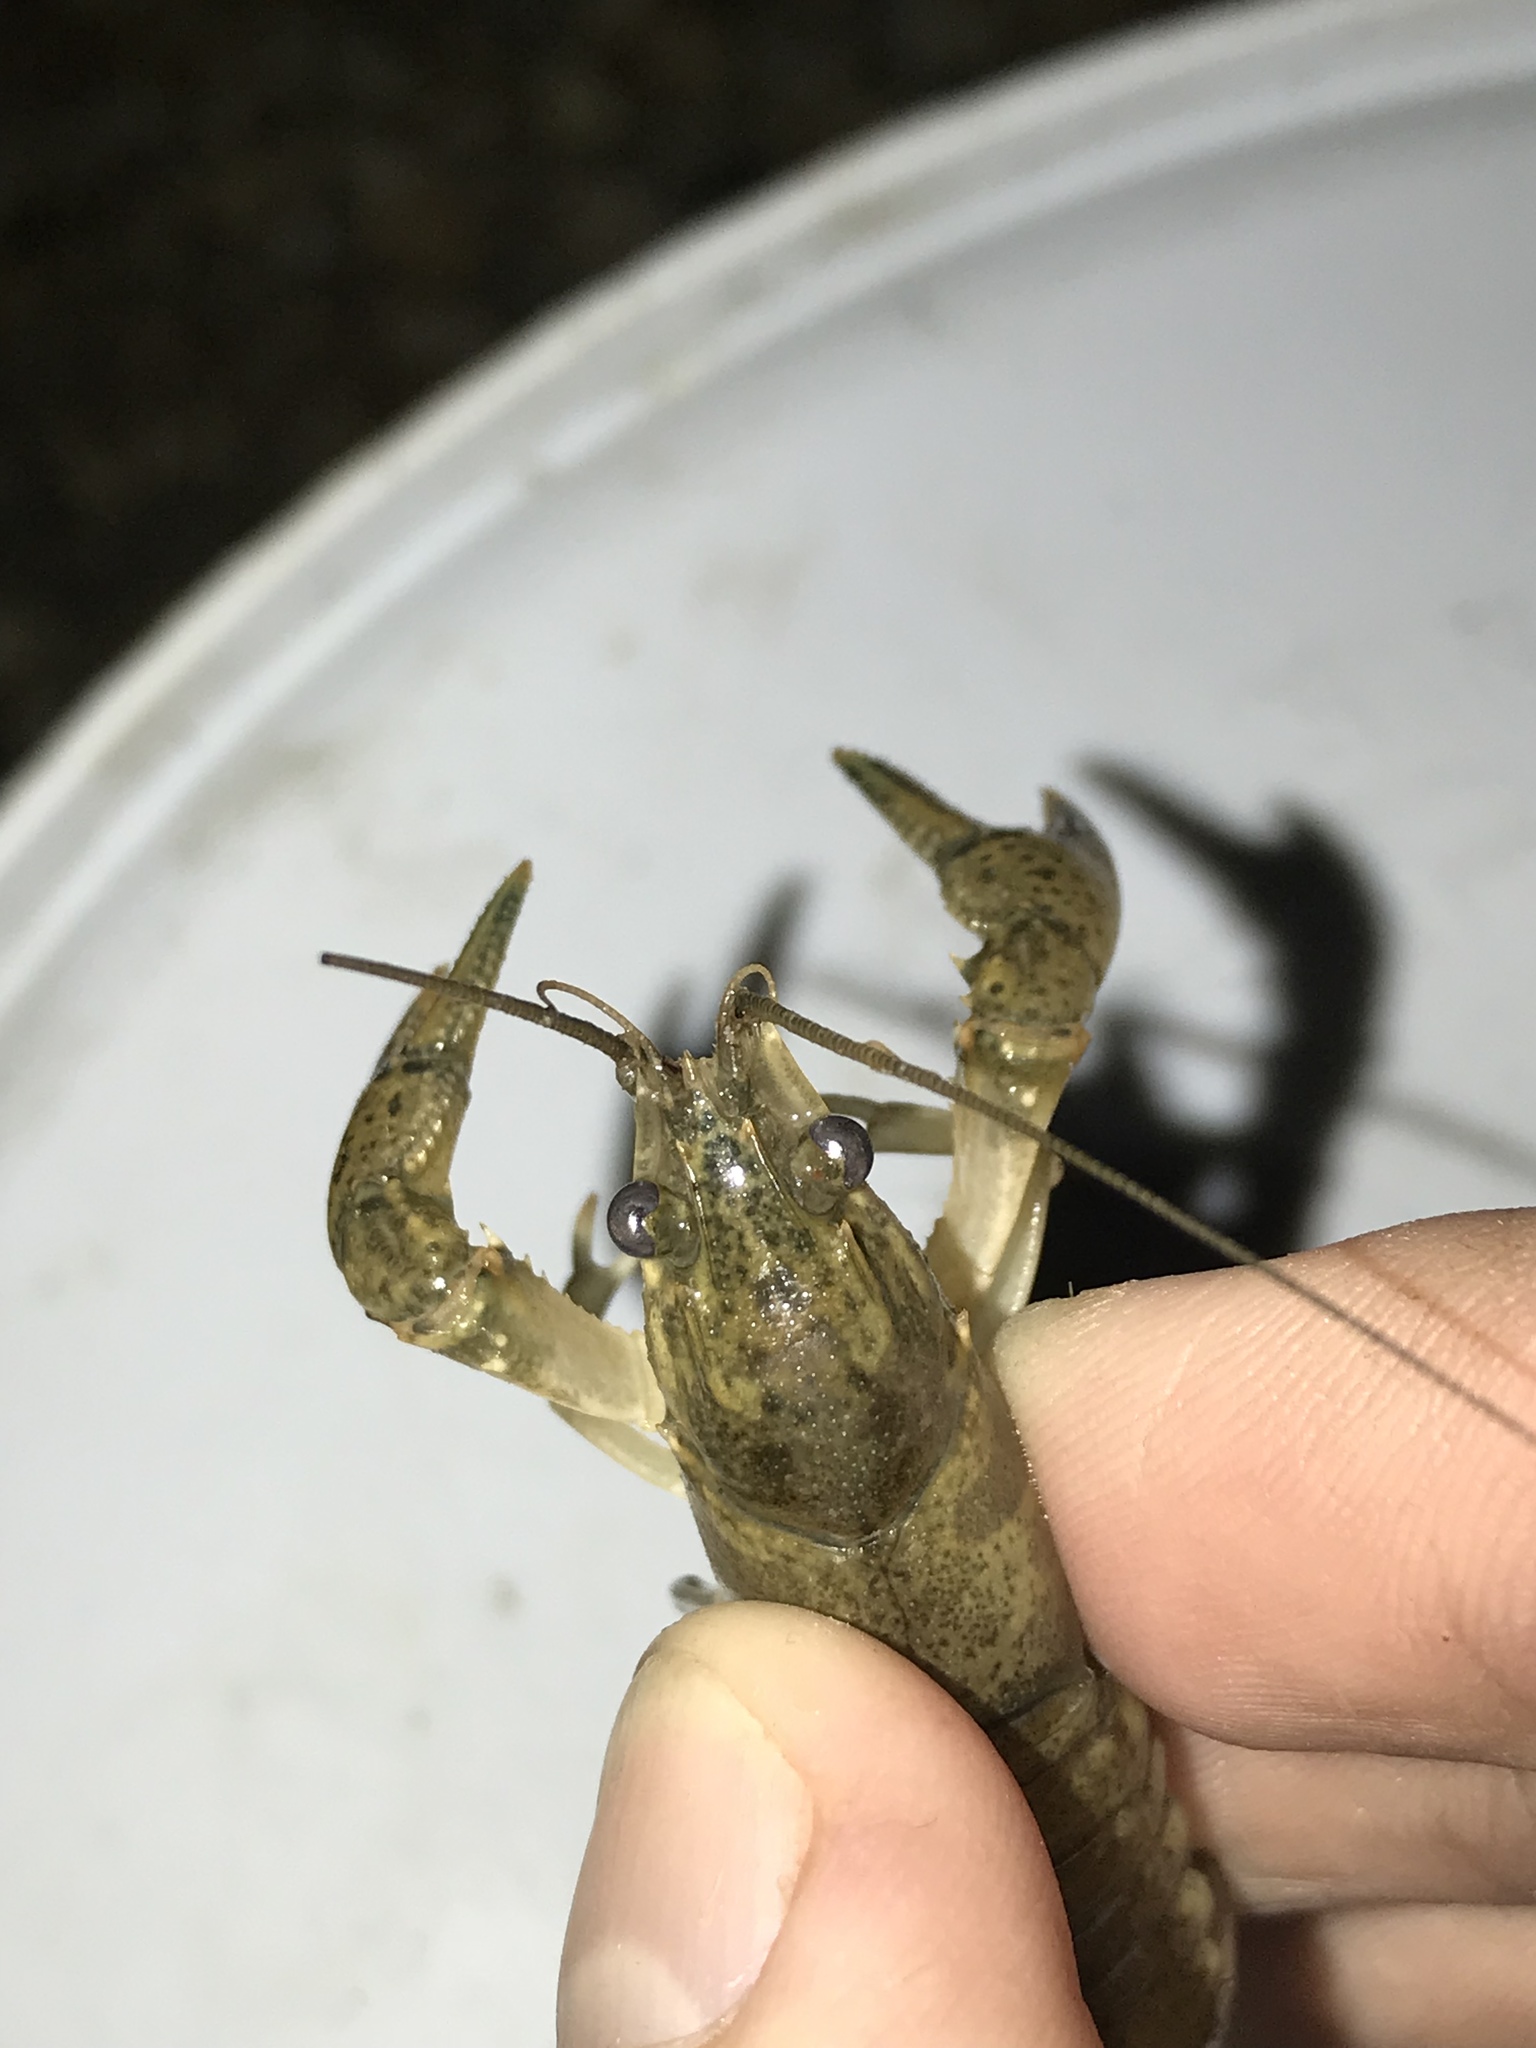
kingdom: Animalia
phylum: Arthropoda
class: Malacostraca
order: Decapoda
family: Cambaridae
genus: Faxonius
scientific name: Faxonius occidentalis
